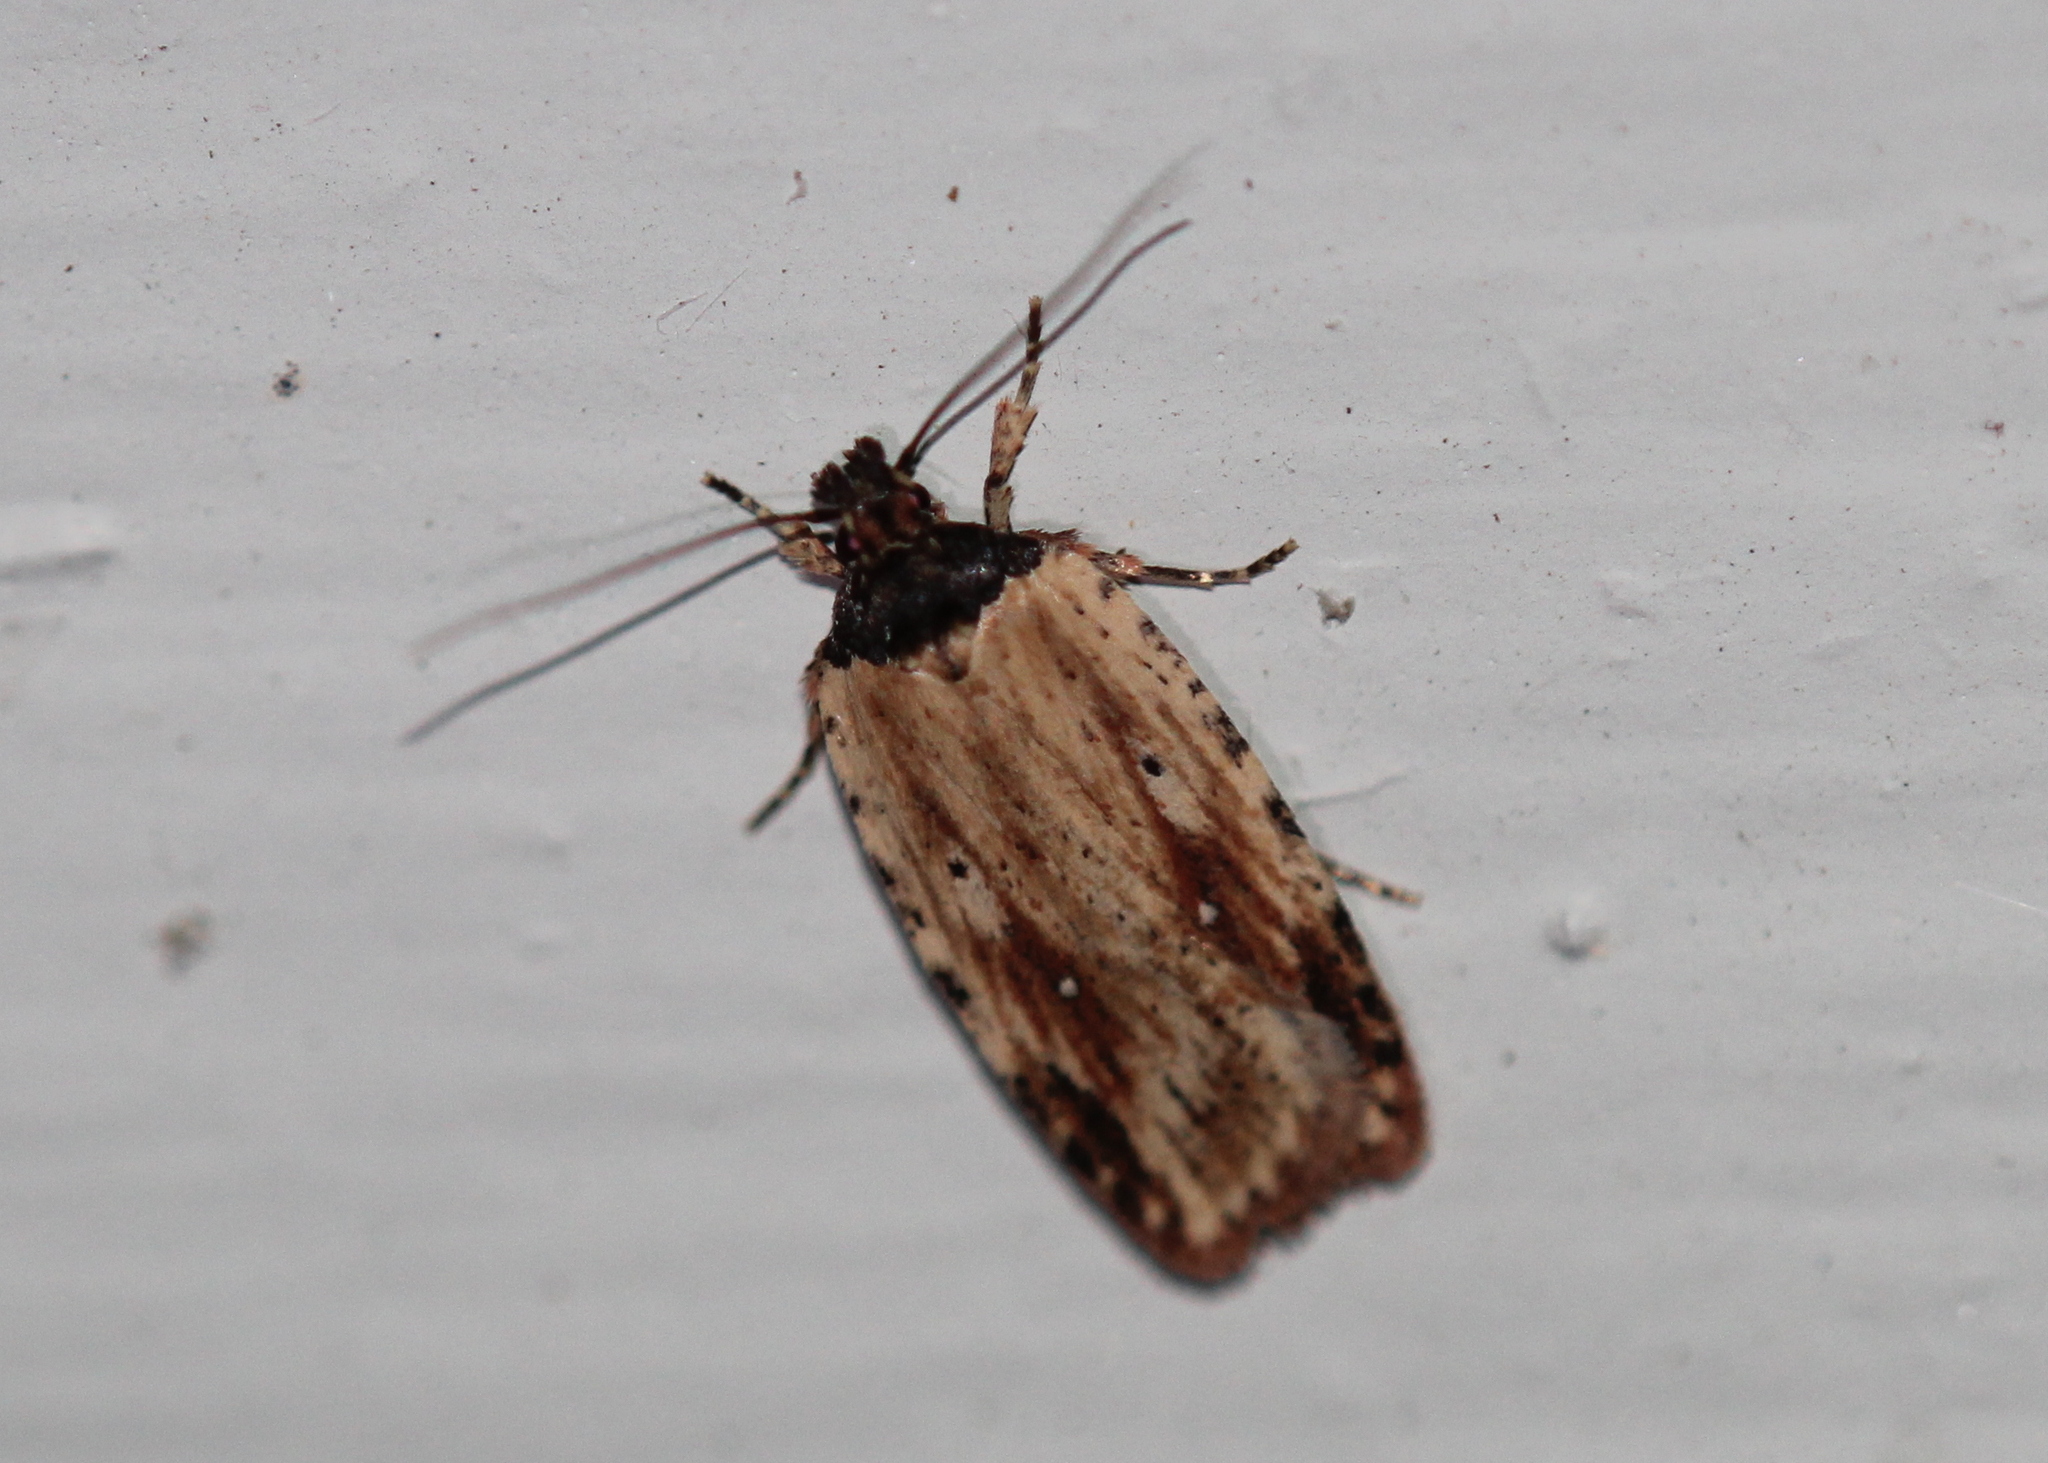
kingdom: Animalia
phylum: Arthropoda
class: Insecta
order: Lepidoptera
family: Depressariidae
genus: Agonopterix
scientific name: Agonopterix atrodorsella
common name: Beggartick leaffolder
